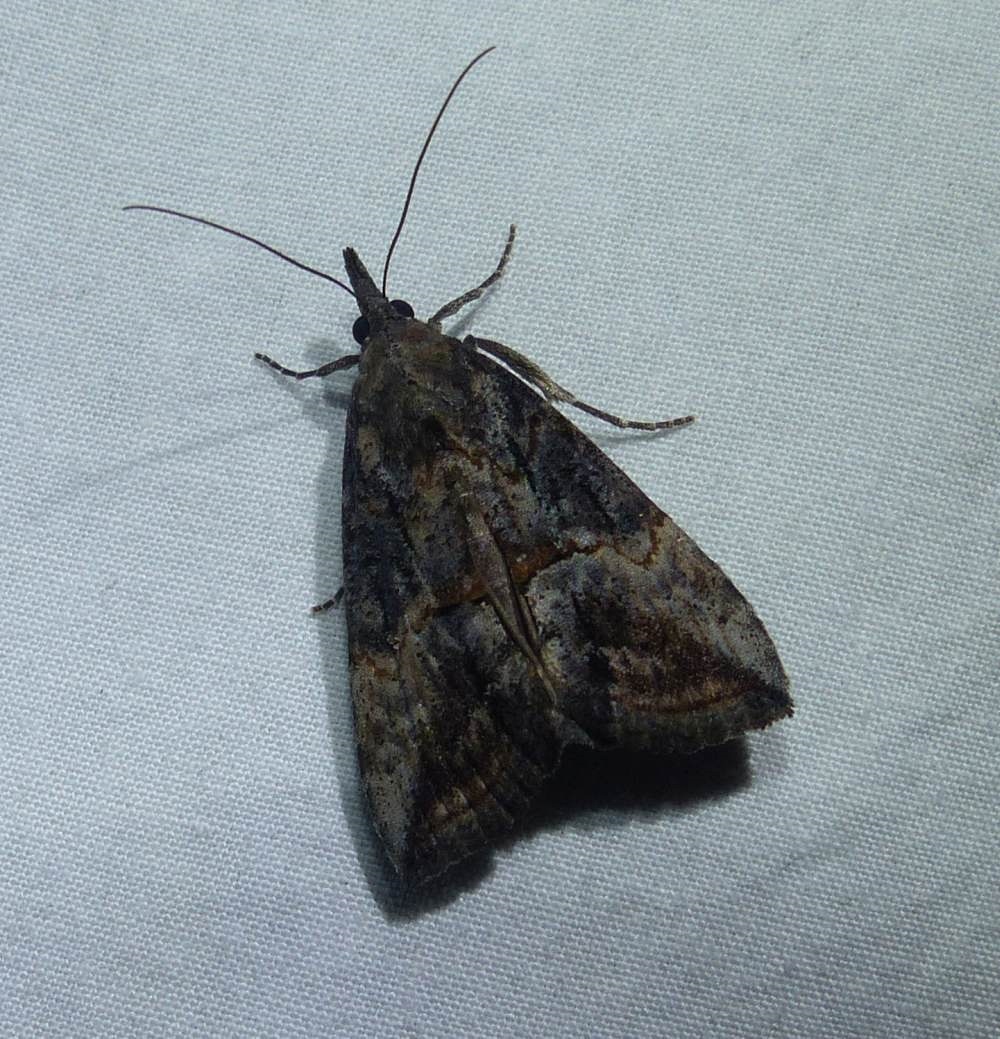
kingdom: Animalia
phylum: Arthropoda
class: Insecta
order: Lepidoptera
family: Erebidae
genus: Hypena
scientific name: Hypena scabra
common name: Green cloverworm
